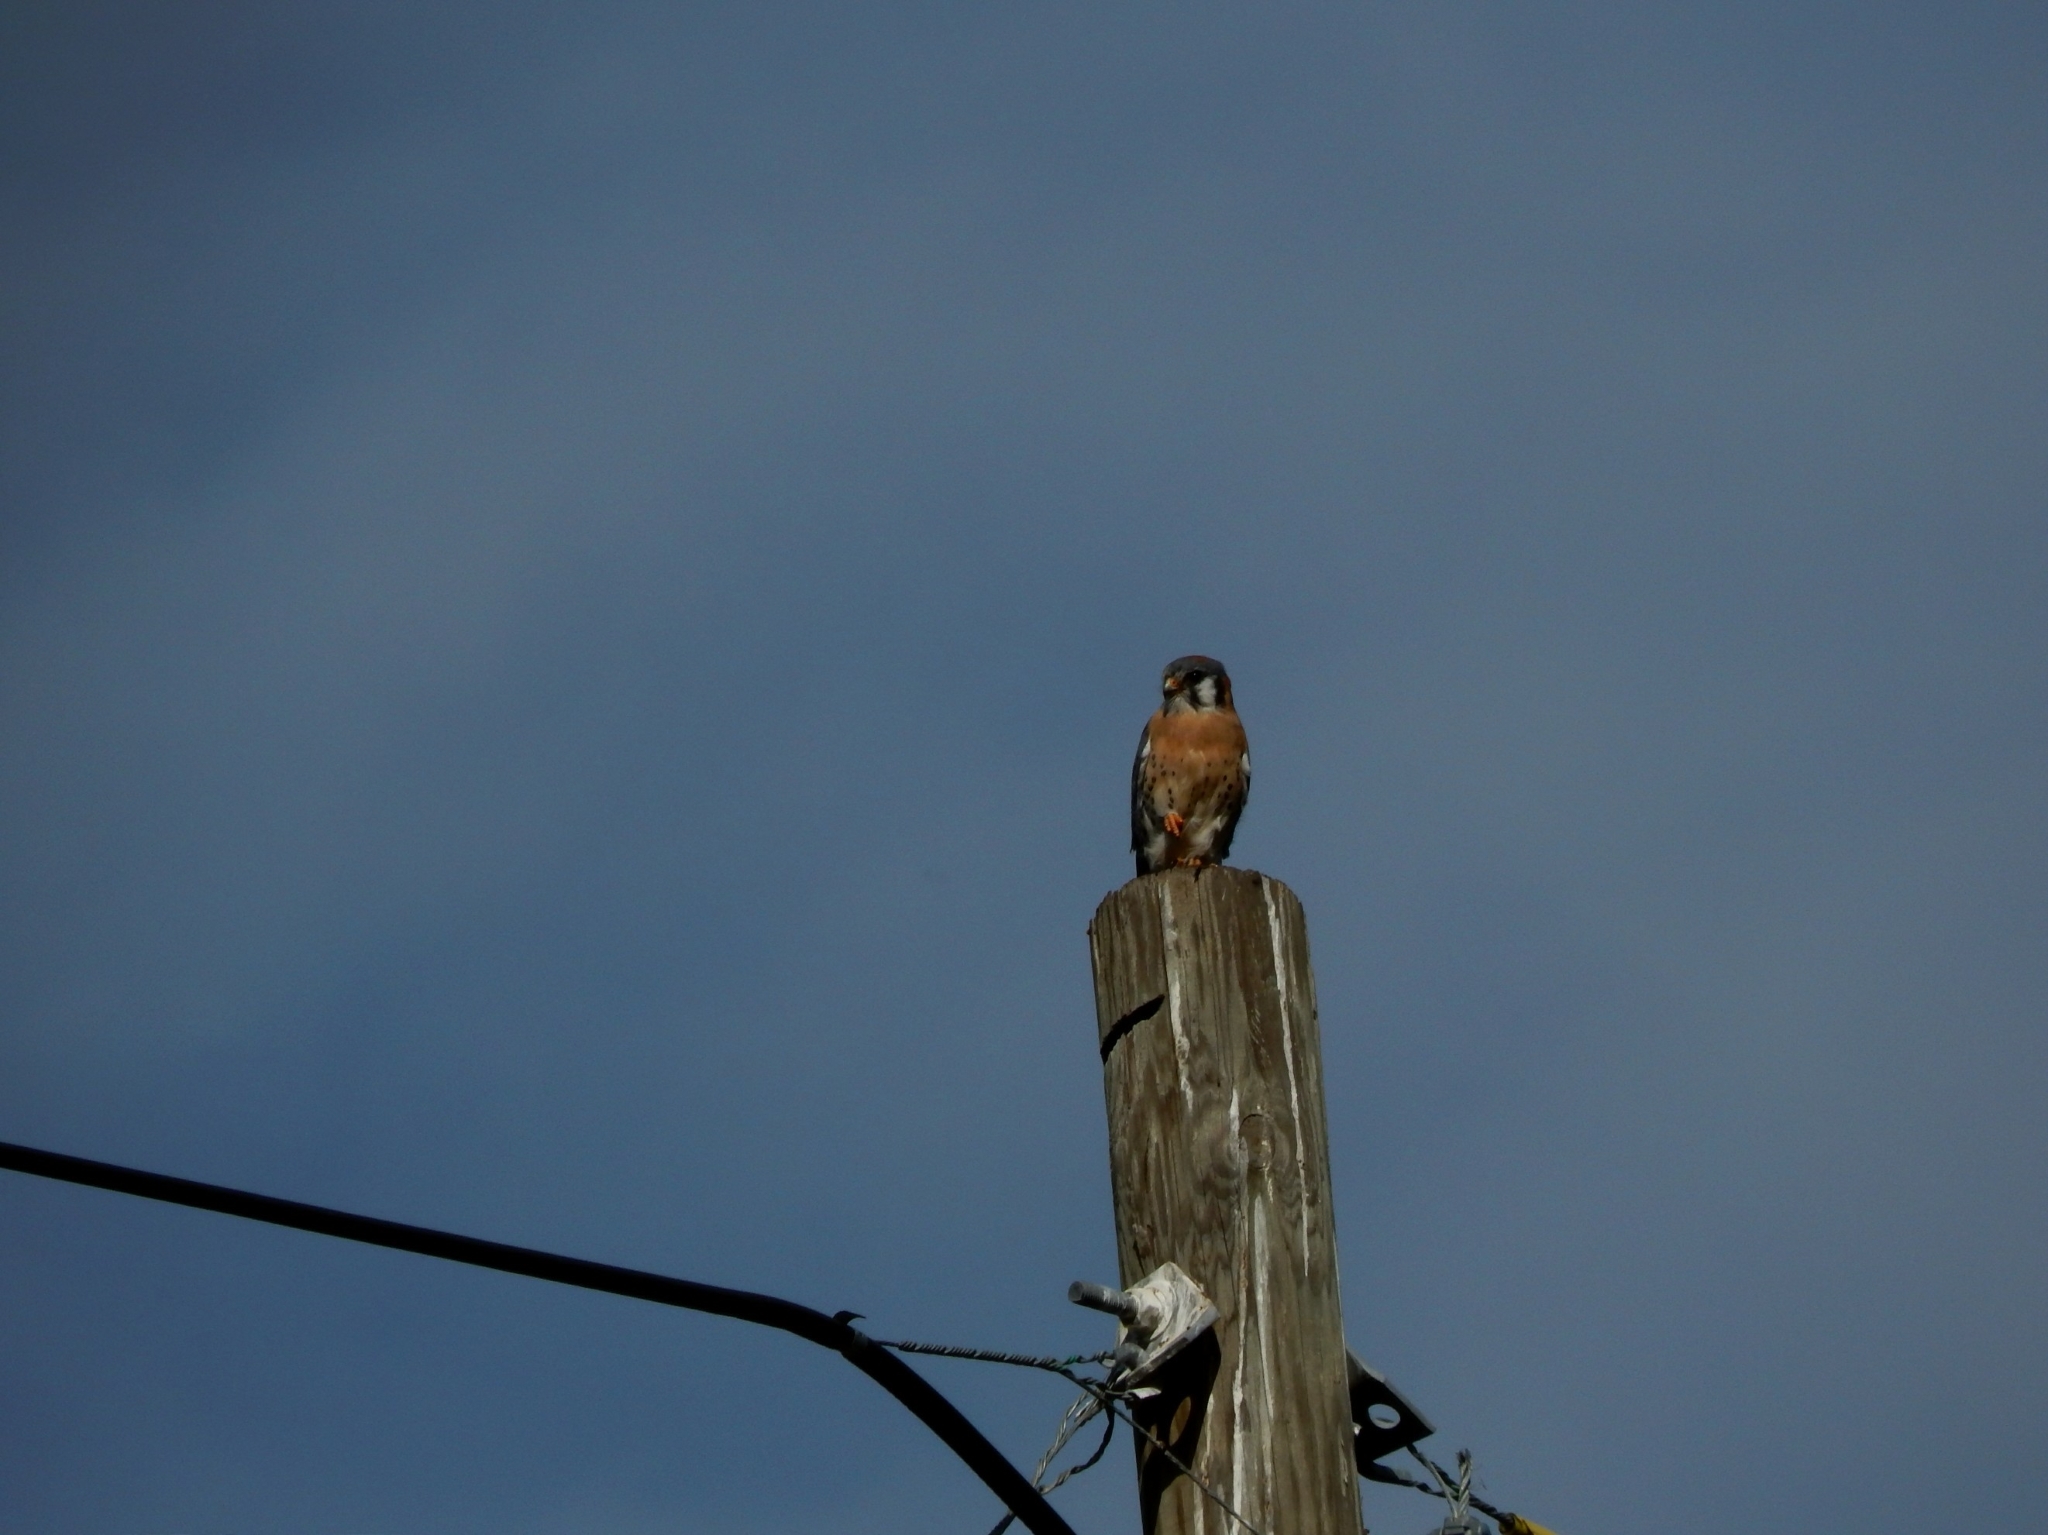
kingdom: Animalia
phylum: Chordata
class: Aves
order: Falconiformes
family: Falconidae
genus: Falco
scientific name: Falco sparverius
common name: American kestrel
